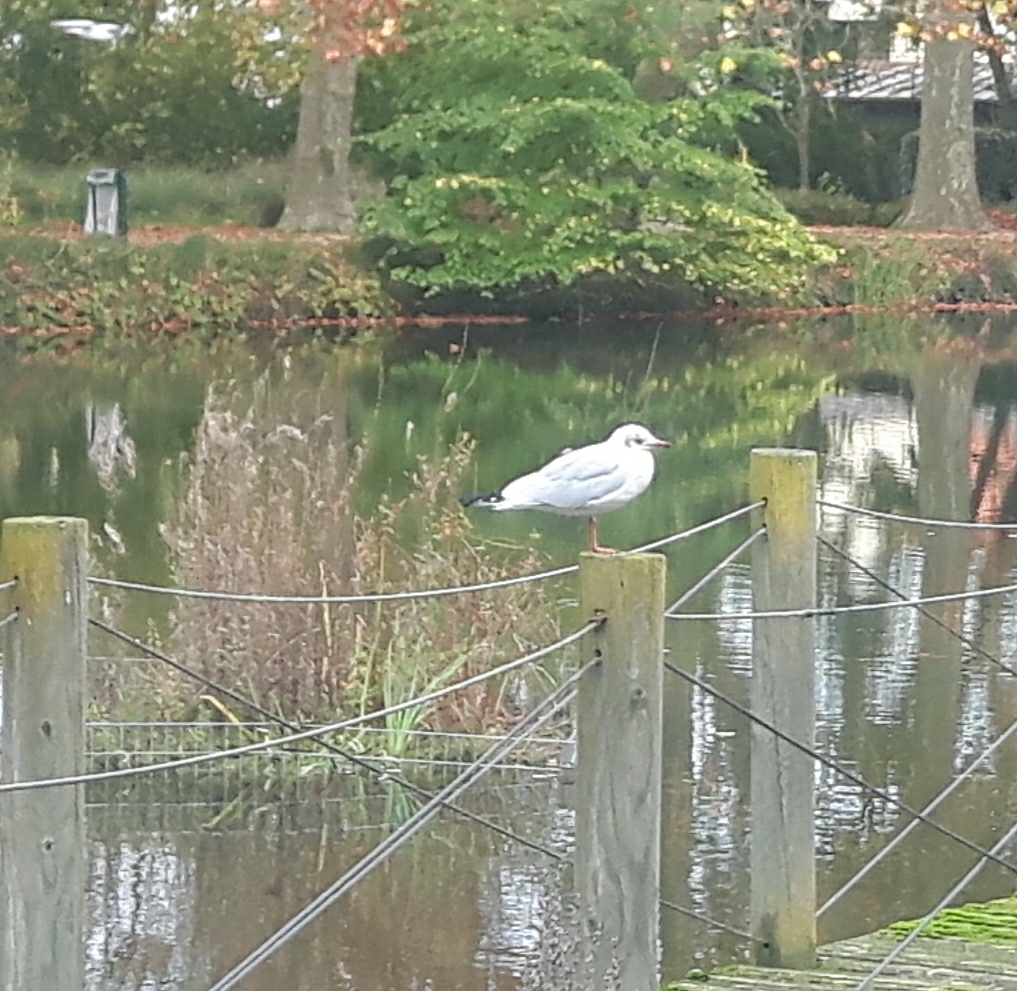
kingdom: Animalia
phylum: Chordata
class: Aves
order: Charadriiformes
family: Laridae
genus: Chroicocephalus
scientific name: Chroicocephalus ridibundus
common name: Black-headed gull
